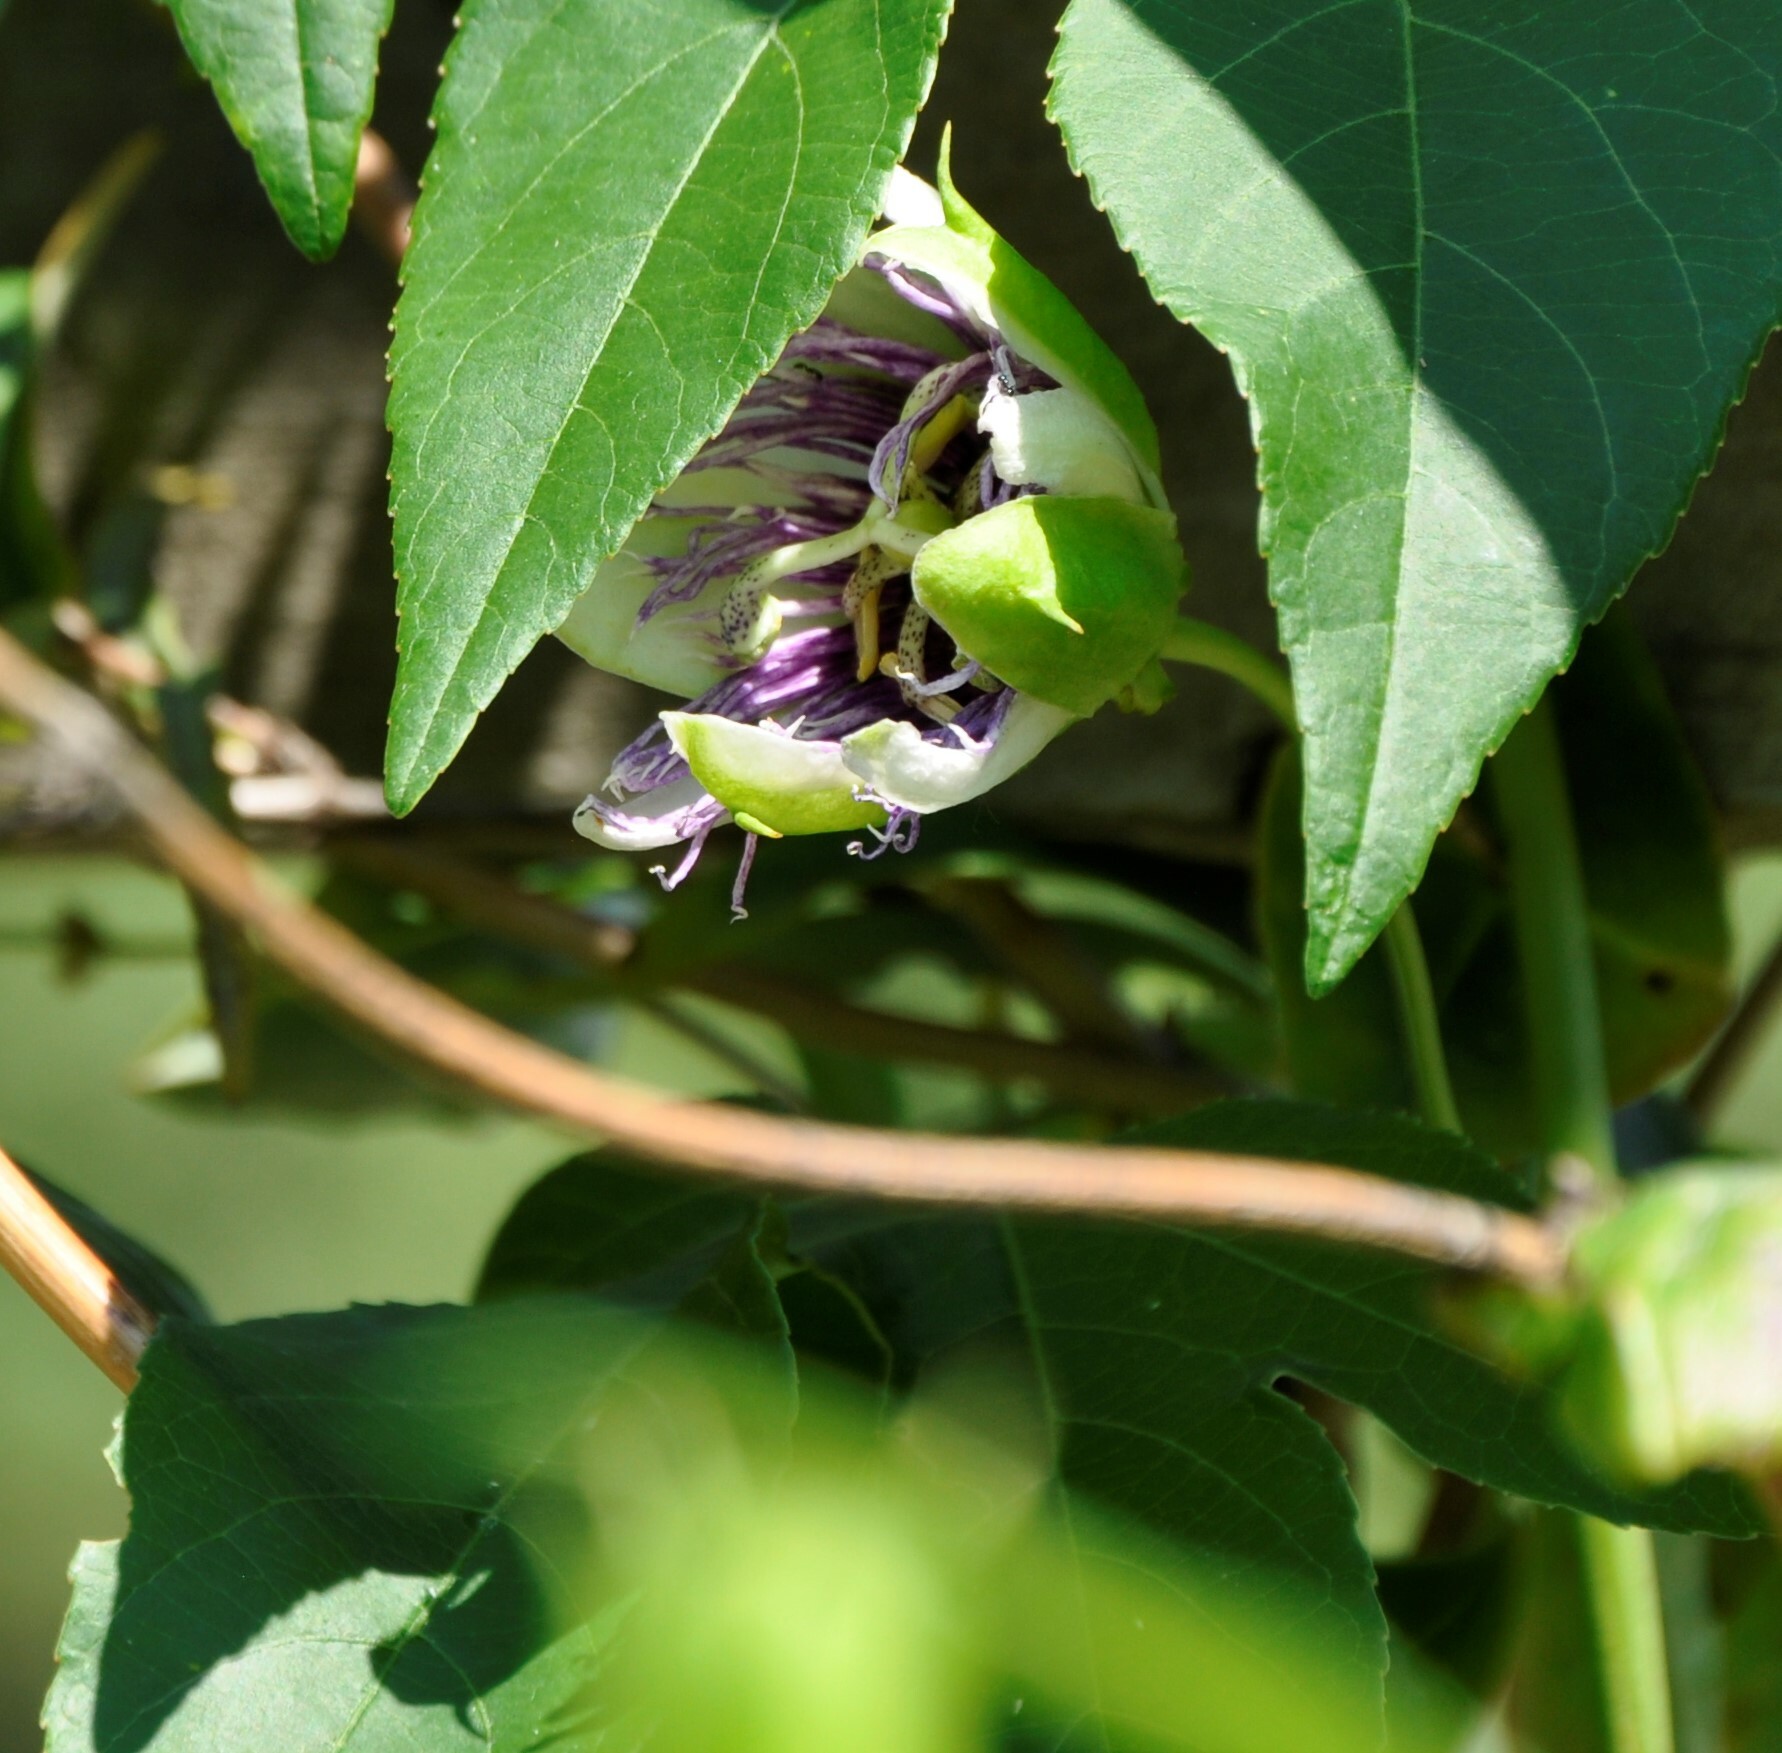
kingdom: Plantae
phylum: Tracheophyta
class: Magnoliopsida
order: Malpighiales
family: Passifloraceae
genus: Passiflora
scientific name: Passiflora incarnata
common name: Apricot-vine
